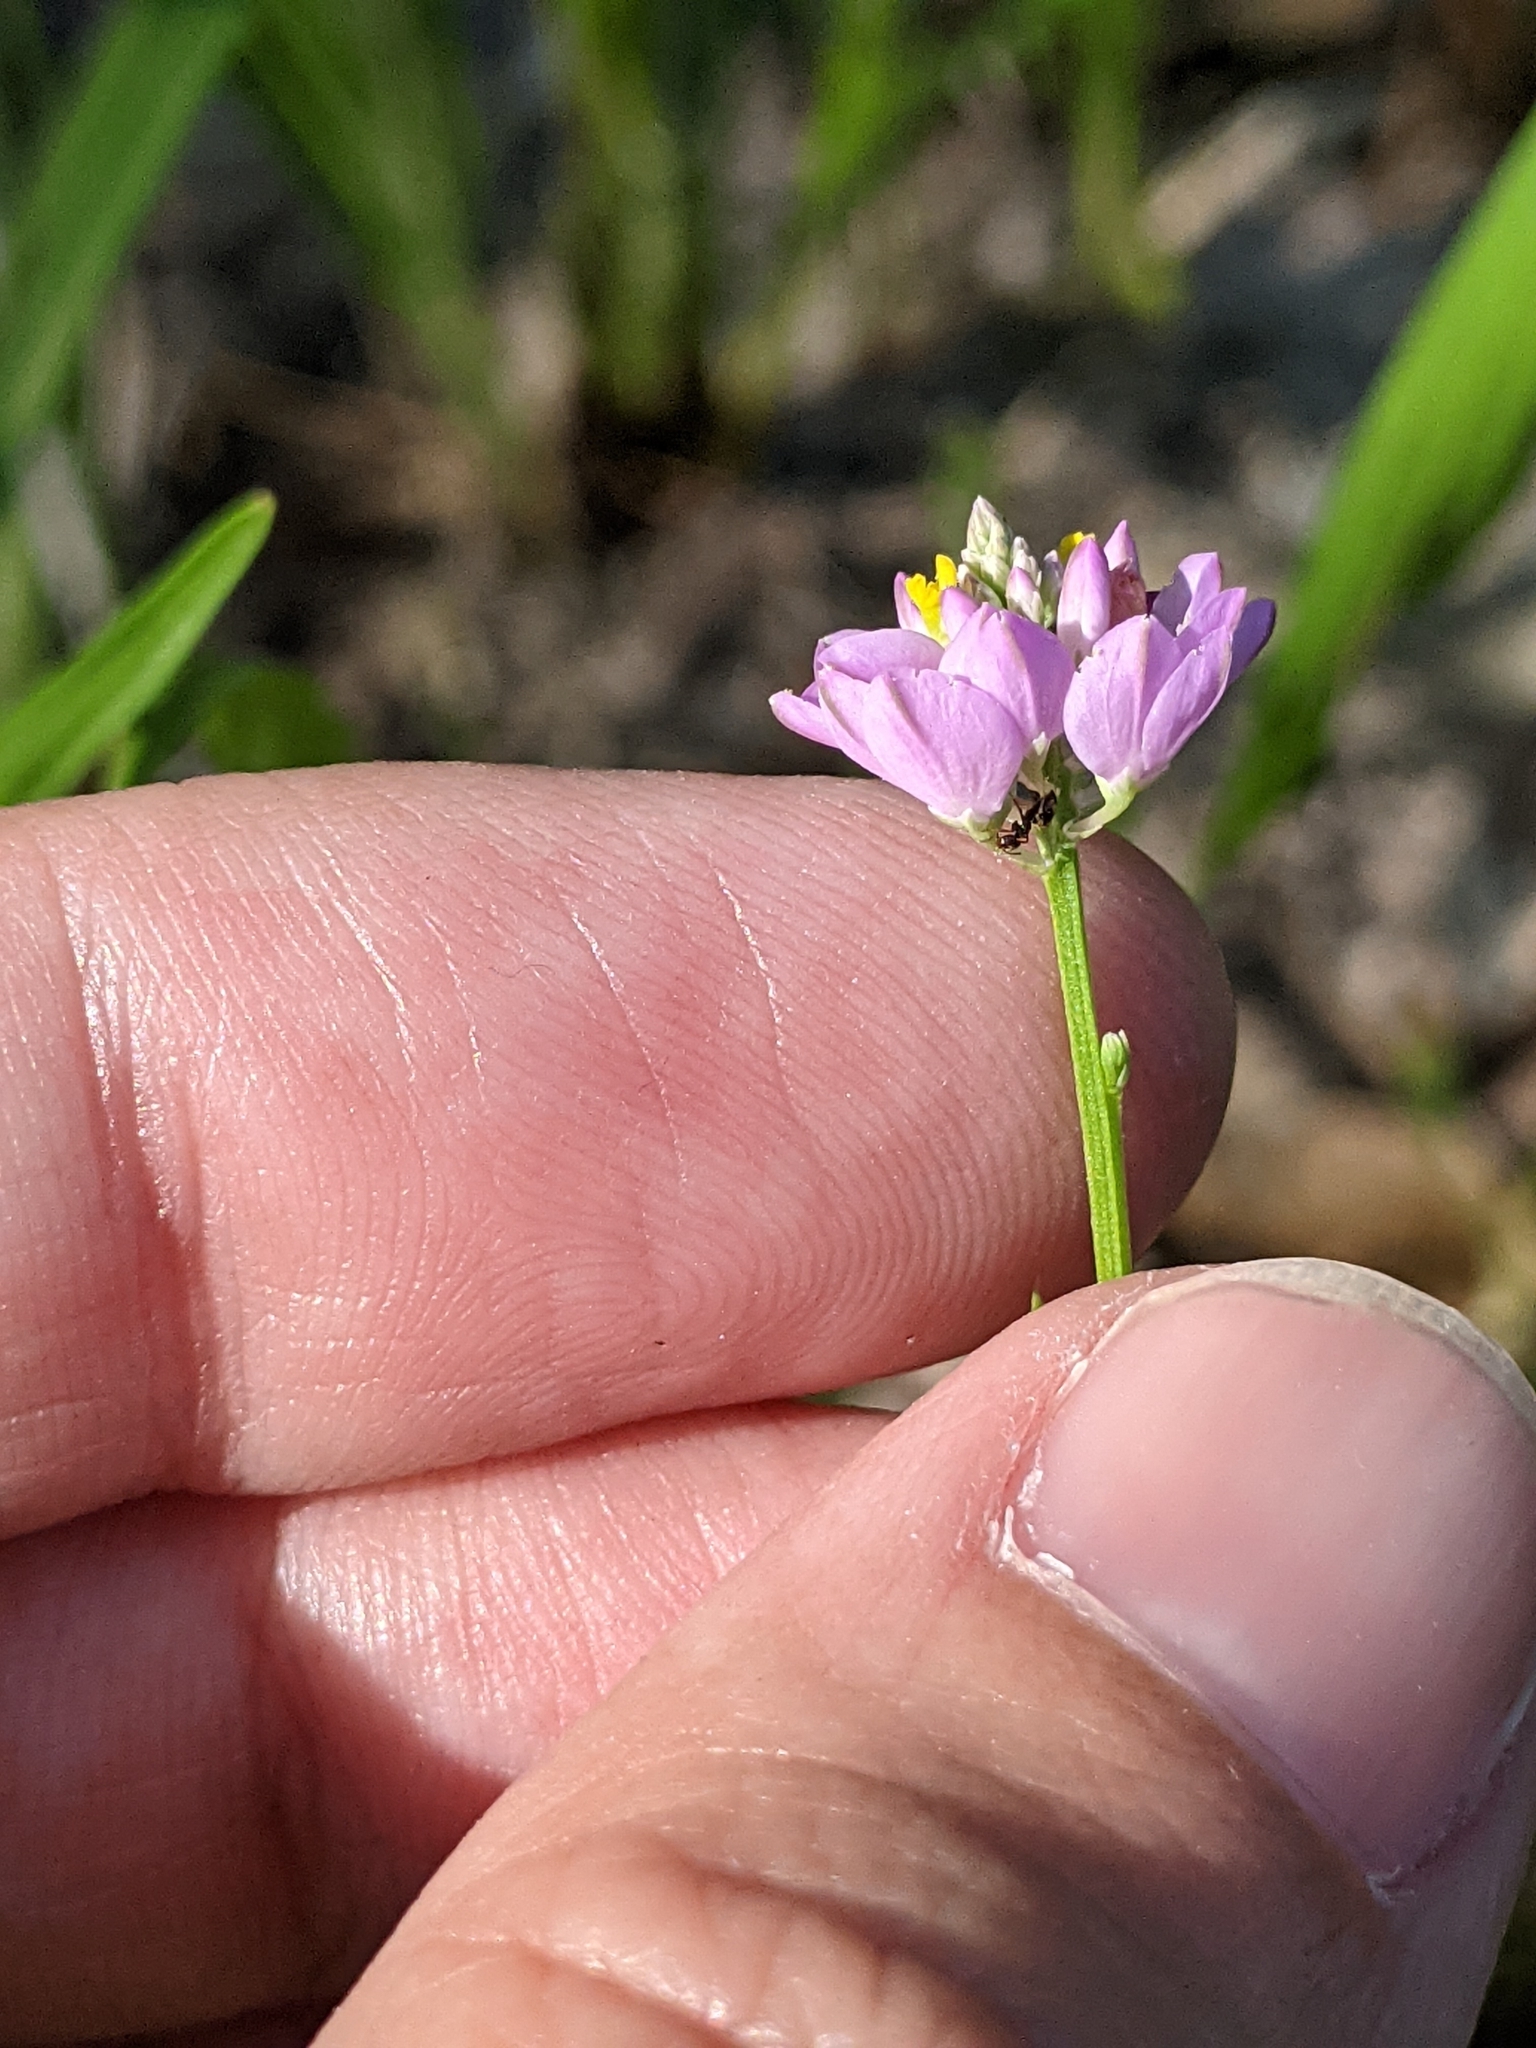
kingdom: Plantae
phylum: Tracheophyta
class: Magnoliopsida
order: Fabales
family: Polygalaceae
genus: Polygala
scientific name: Polygala mariana
